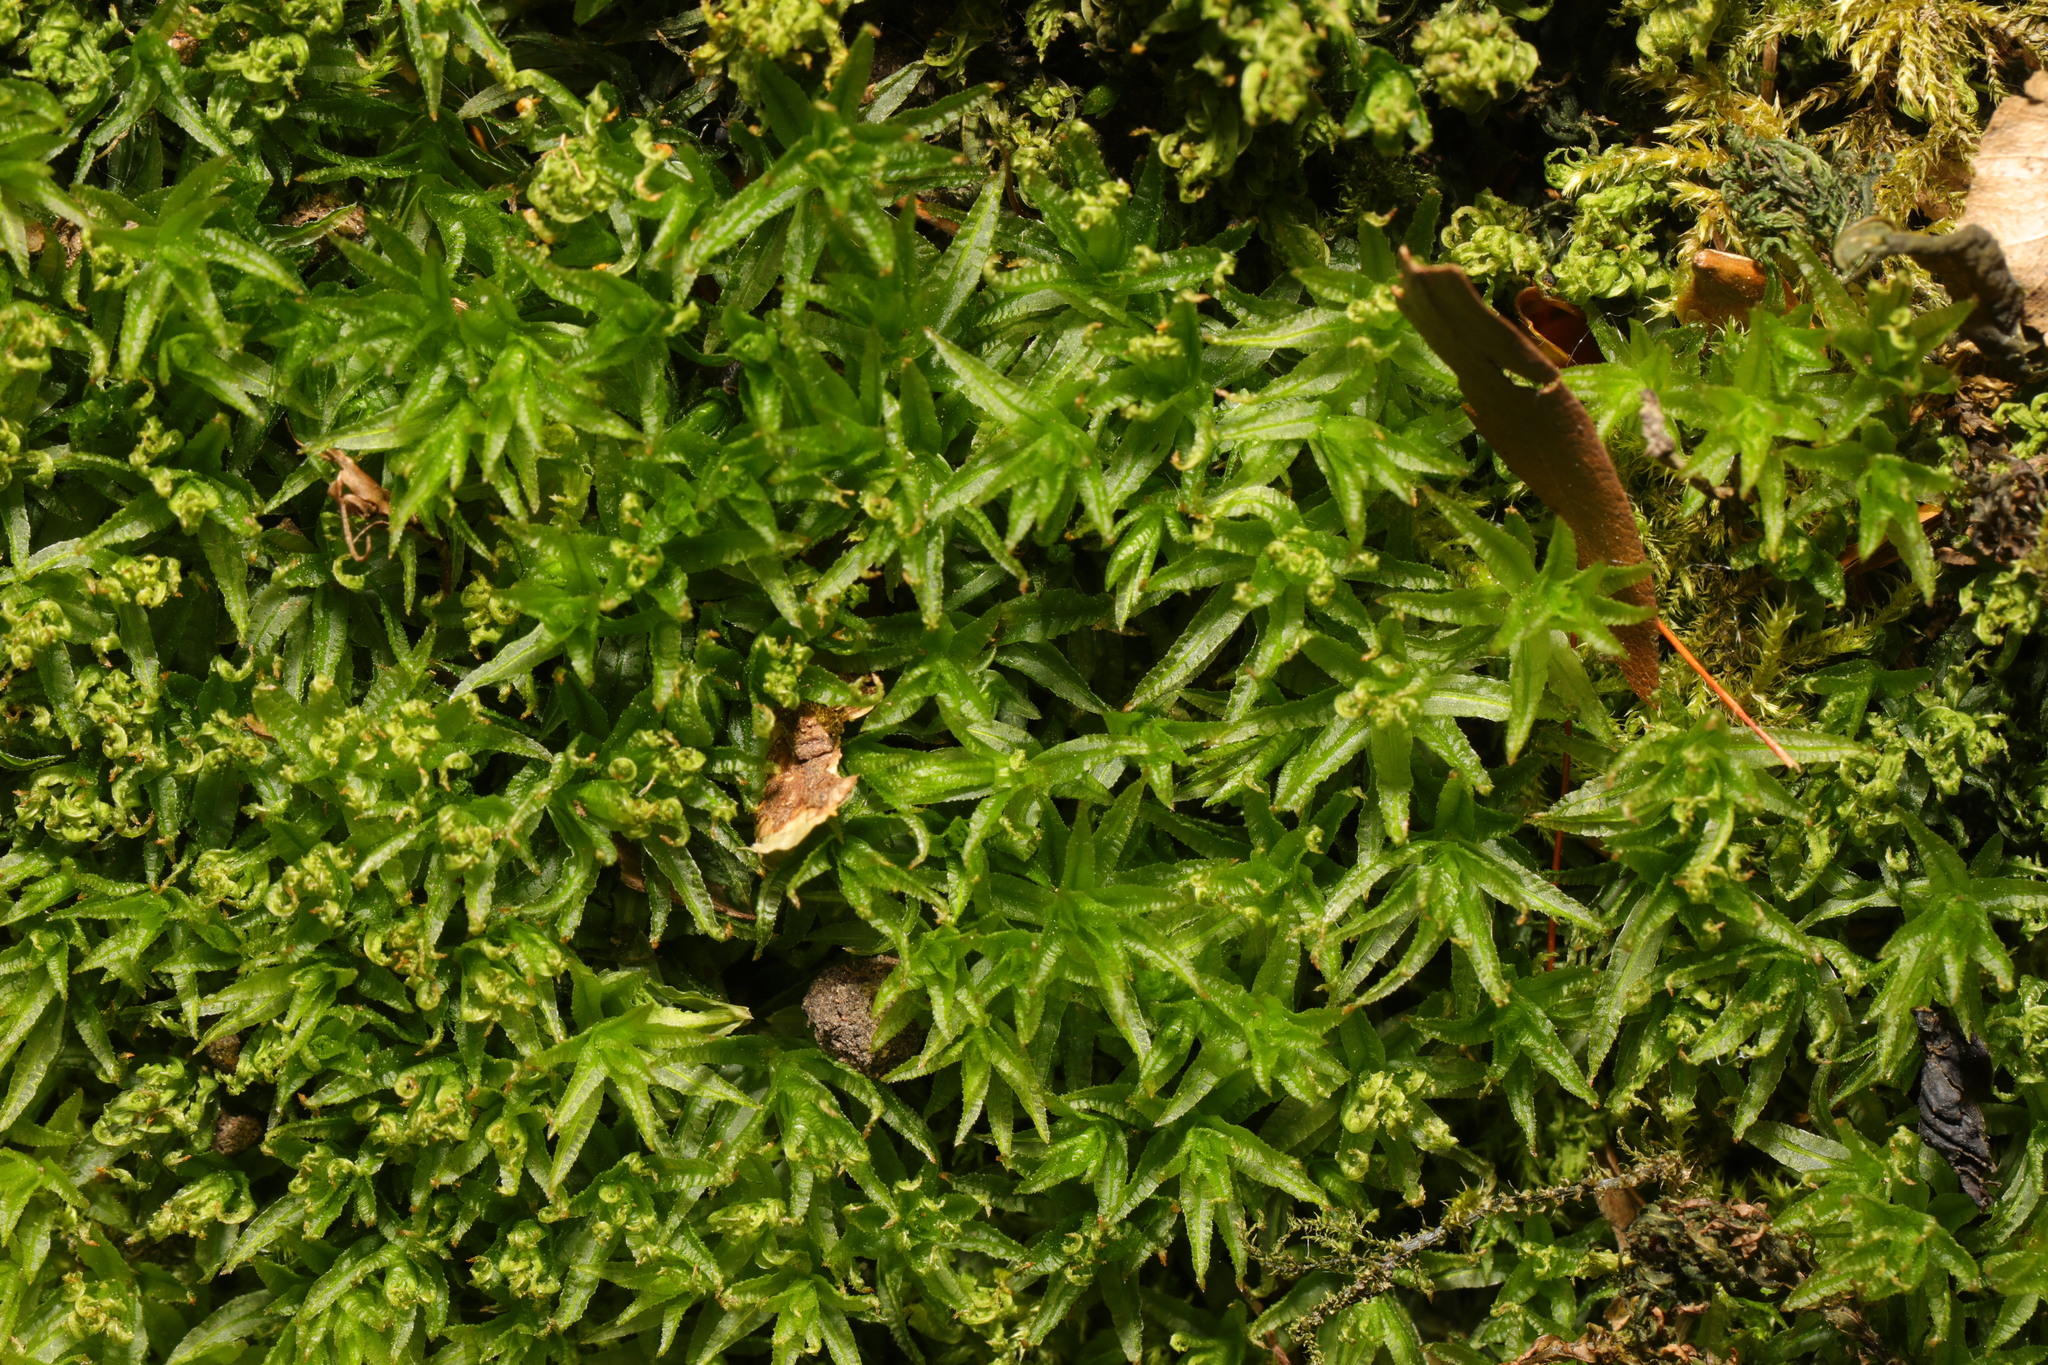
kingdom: Plantae
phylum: Bryophyta
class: Polytrichopsida
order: Polytrichales
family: Polytrichaceae
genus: Atrichum
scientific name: Atrichum undulatum
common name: Common smoothcap
